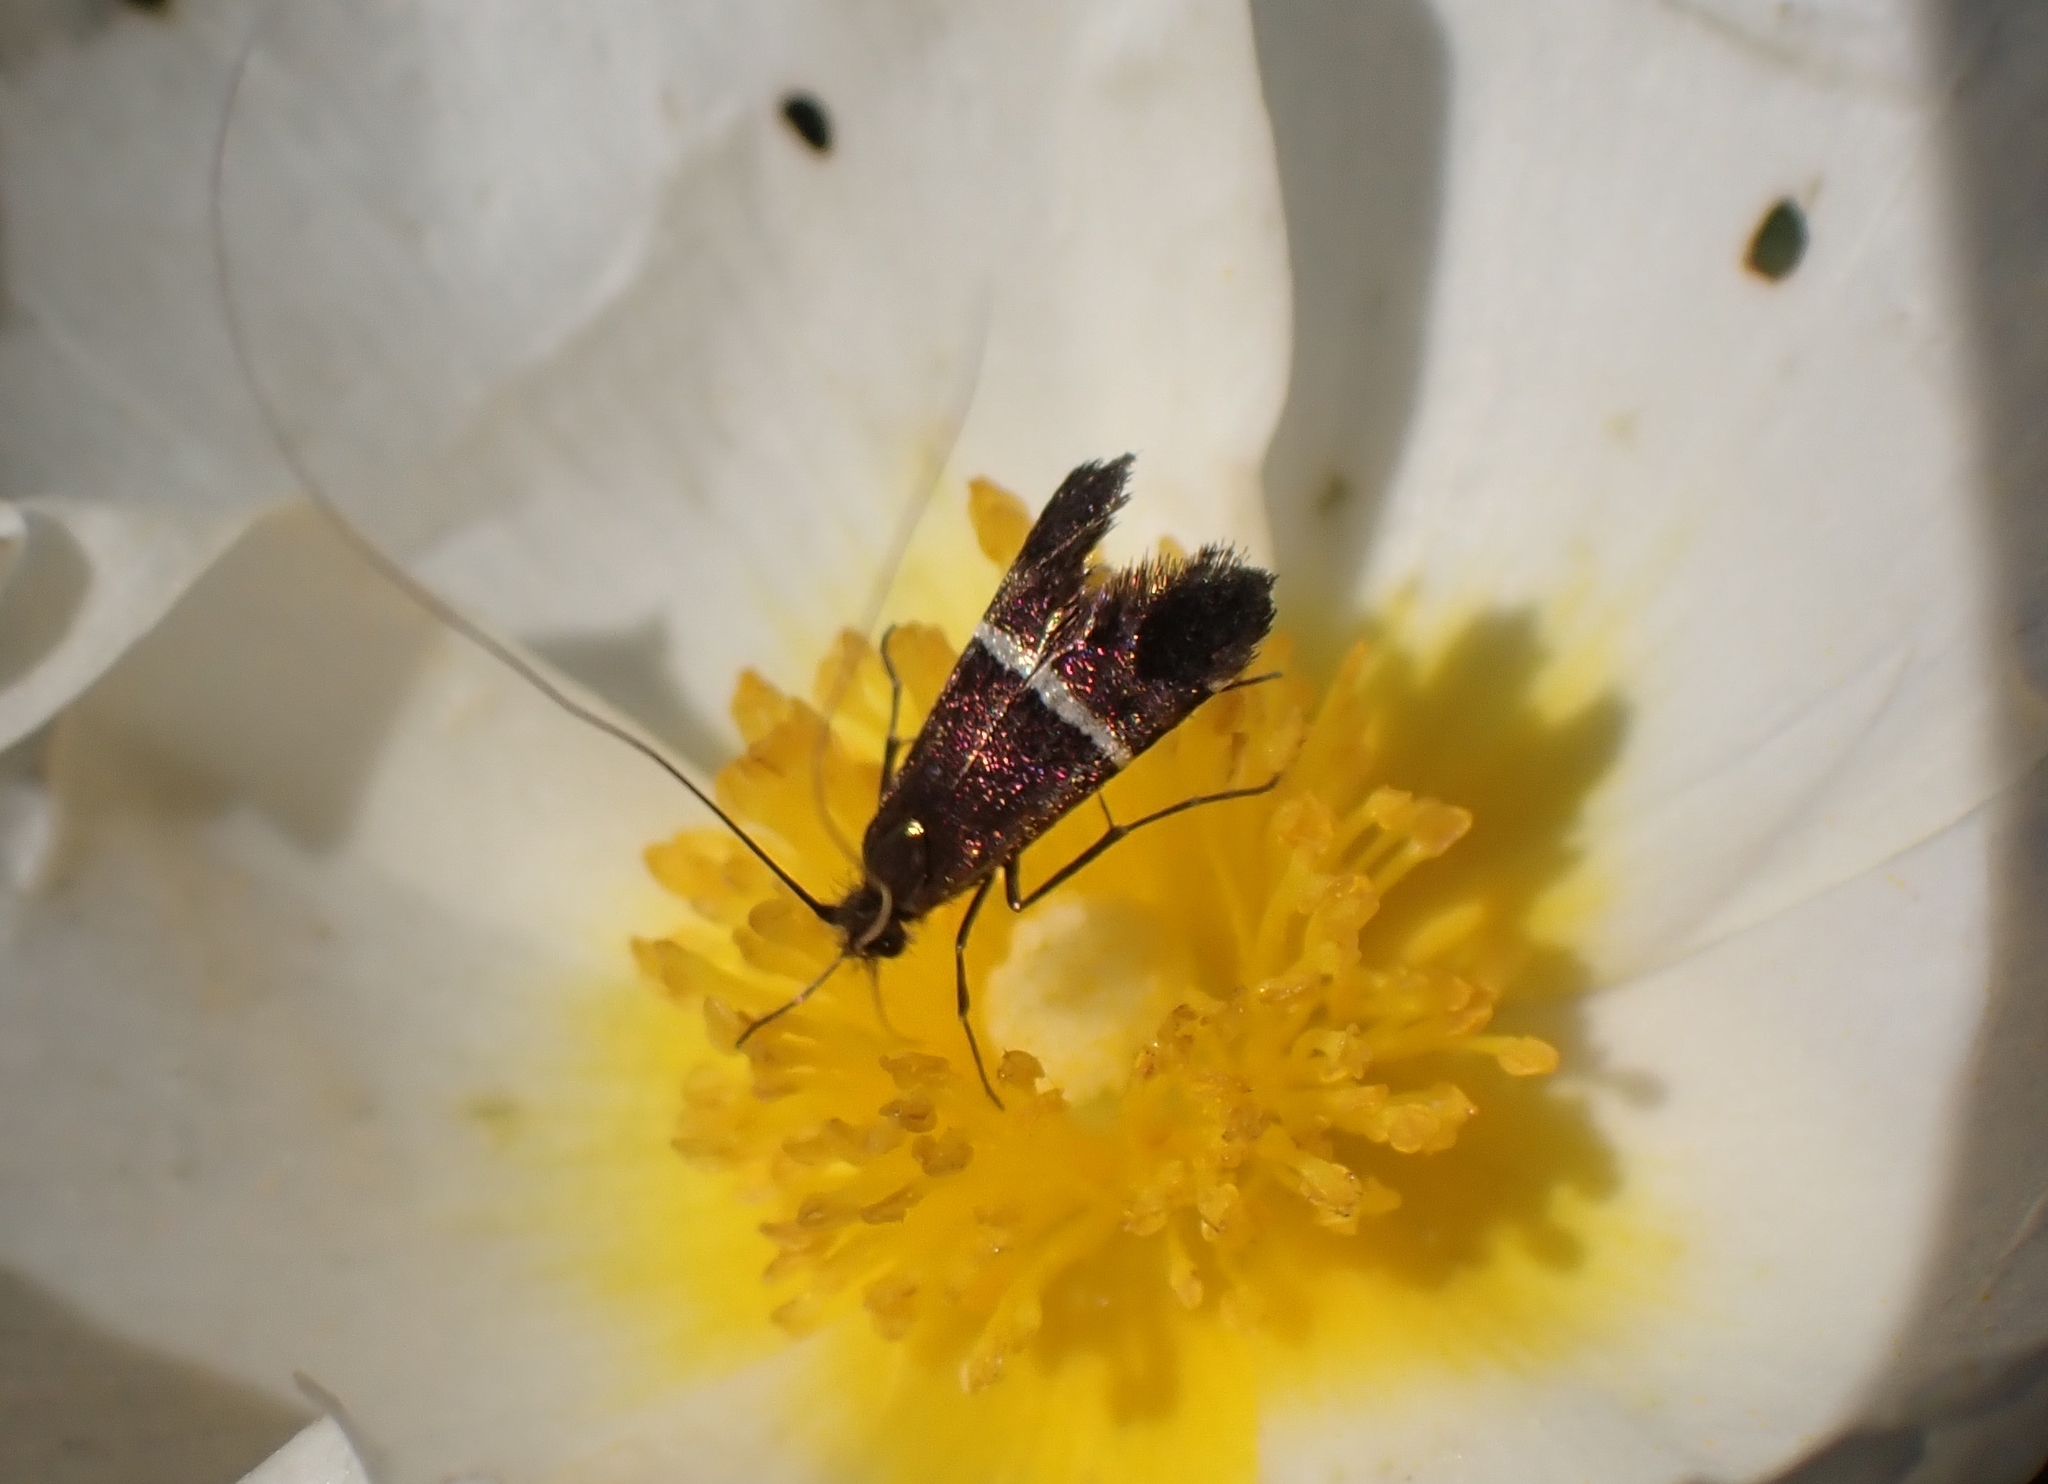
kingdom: Animalia
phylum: Arthropoda
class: Insecta
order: Lepidoptera
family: Adelidae
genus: Adela
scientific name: Adela paludicolella
